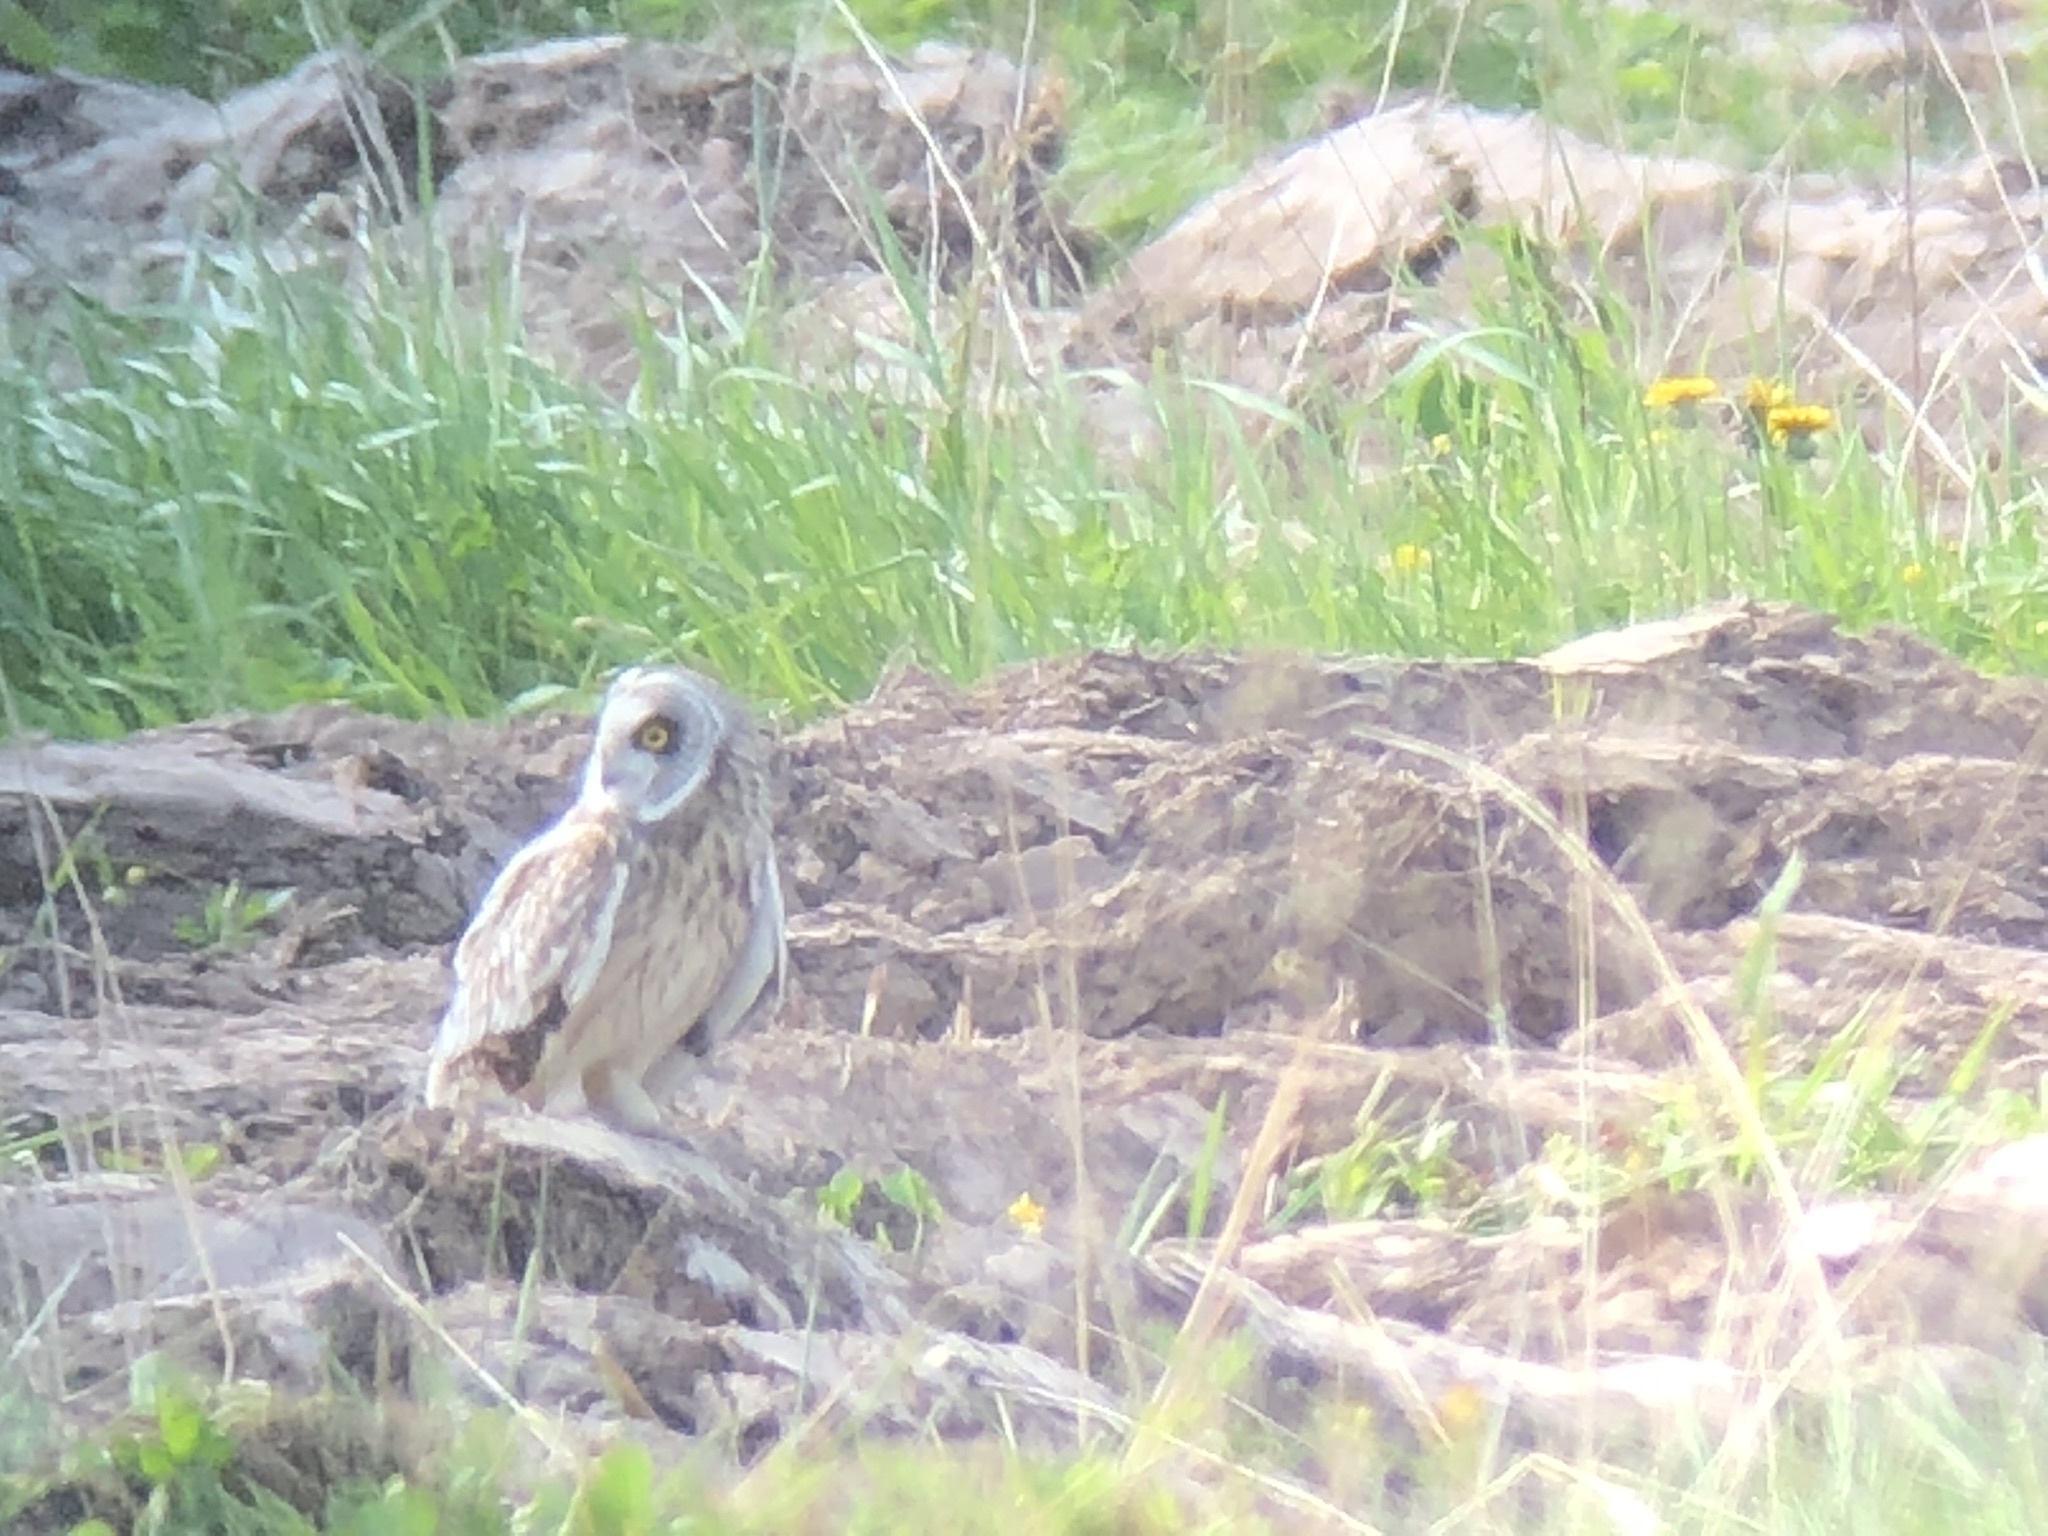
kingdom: Animalia
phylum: Chordata
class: Aves
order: Strigiformes
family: Strigidae
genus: Asio
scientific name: Asio flammeus
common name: Short-eared owl
